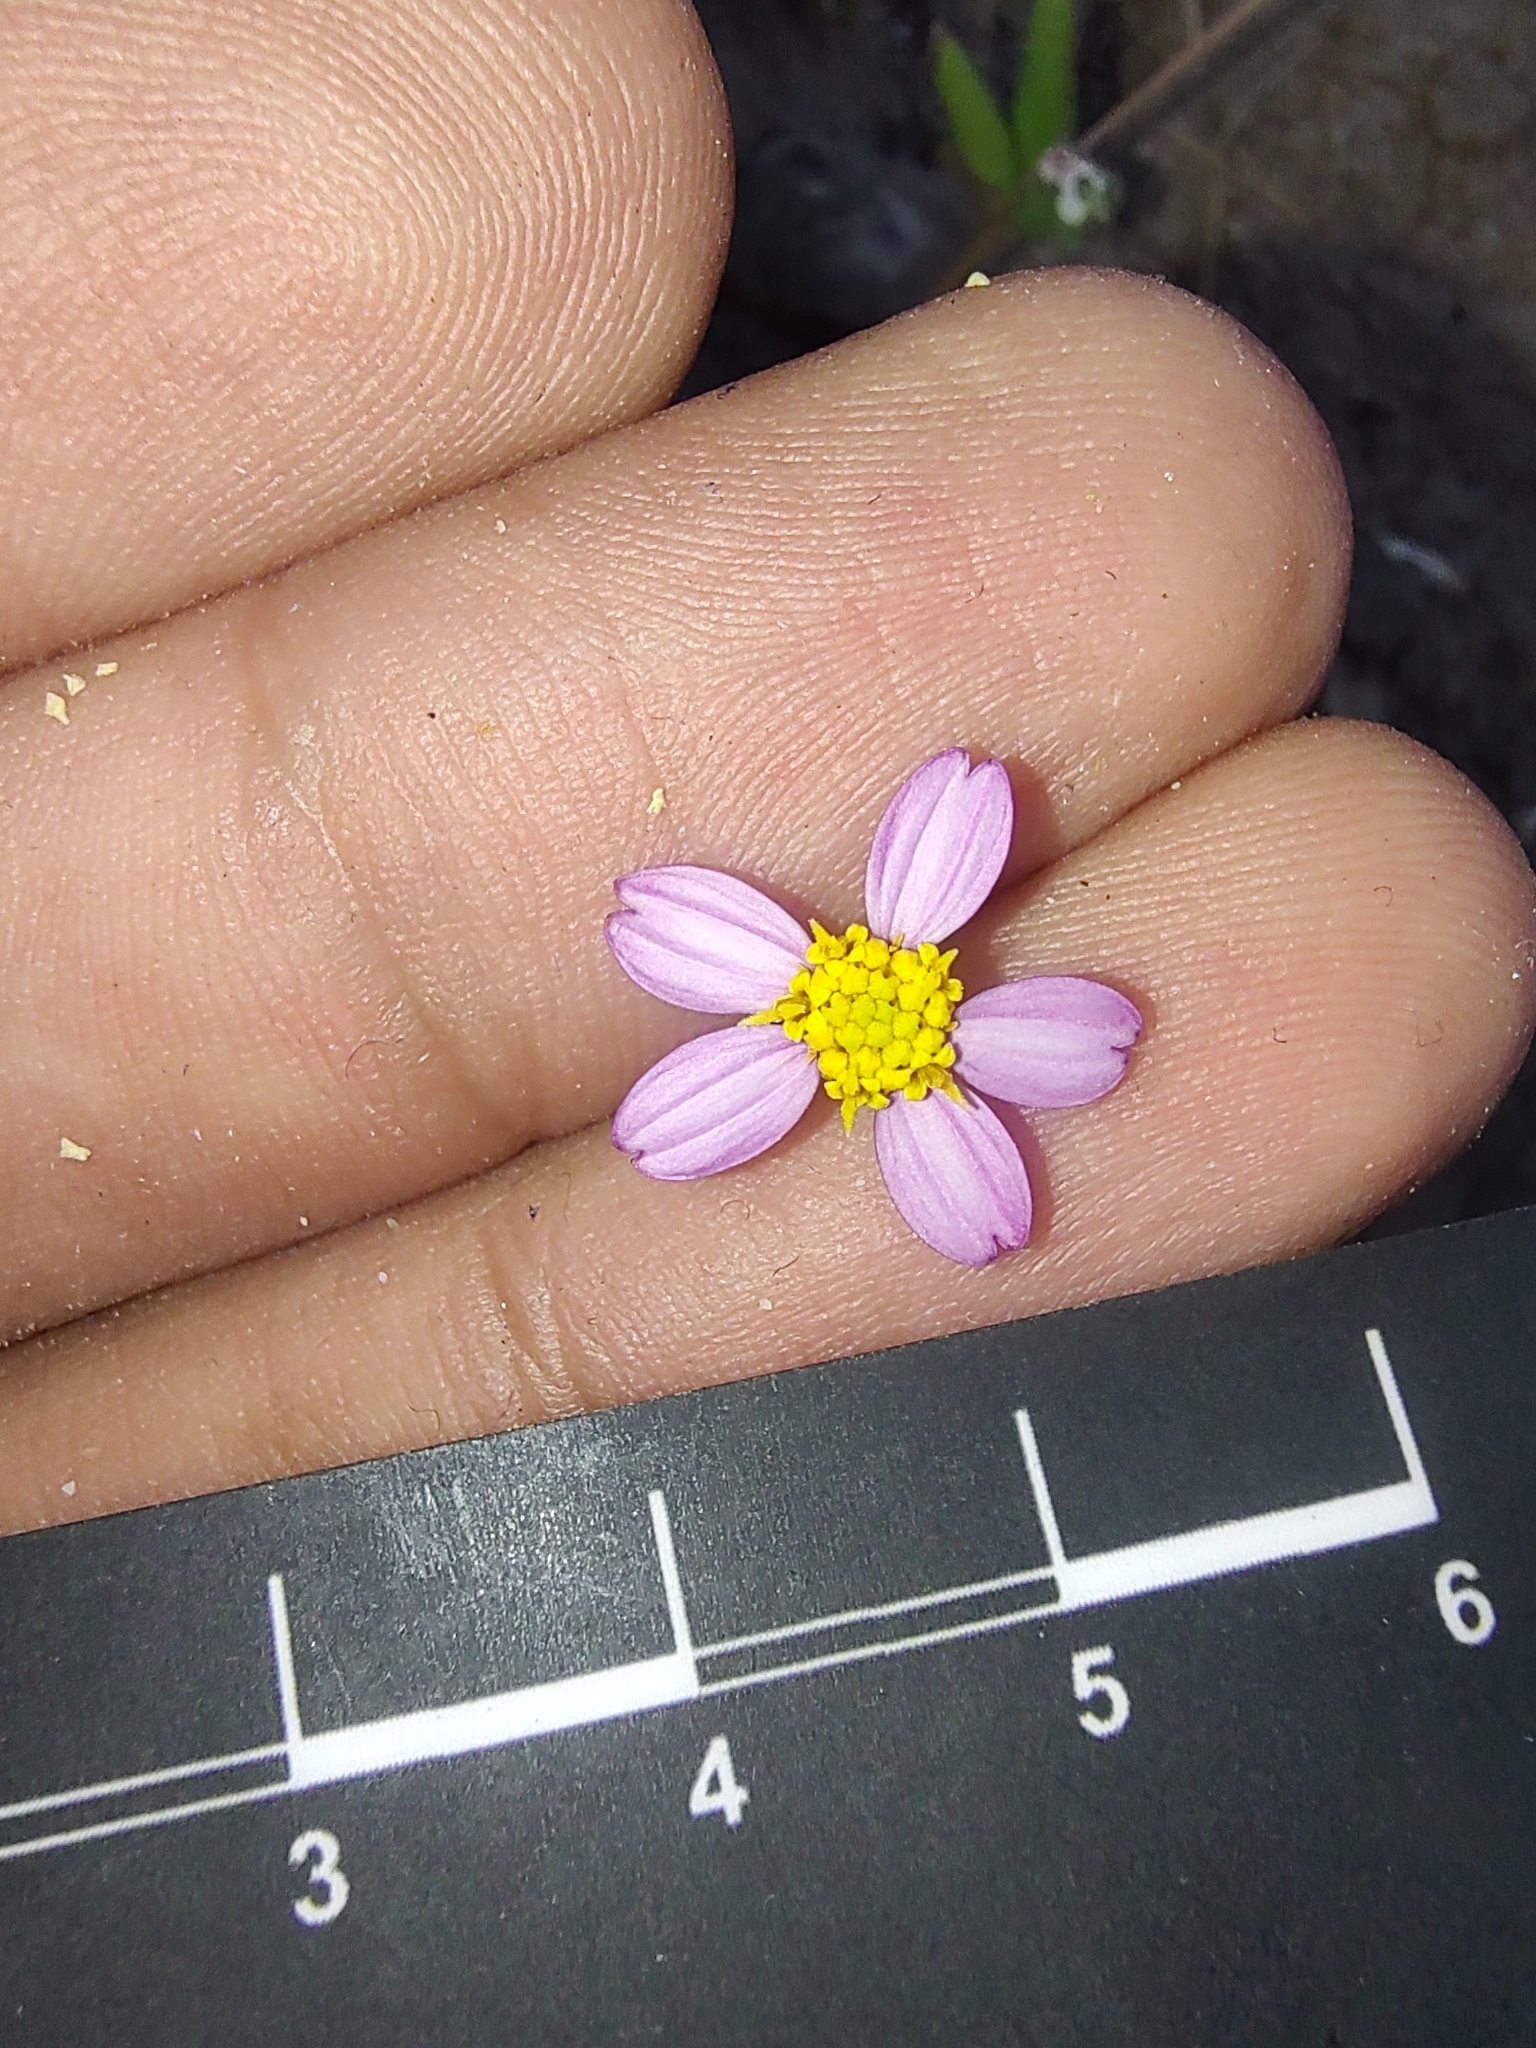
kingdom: Plantae
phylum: Tracheophyta
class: Magnoliopsida
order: Asterales
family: Asteraceae
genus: Coreocarpus
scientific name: Coreocarpus parthenioides
